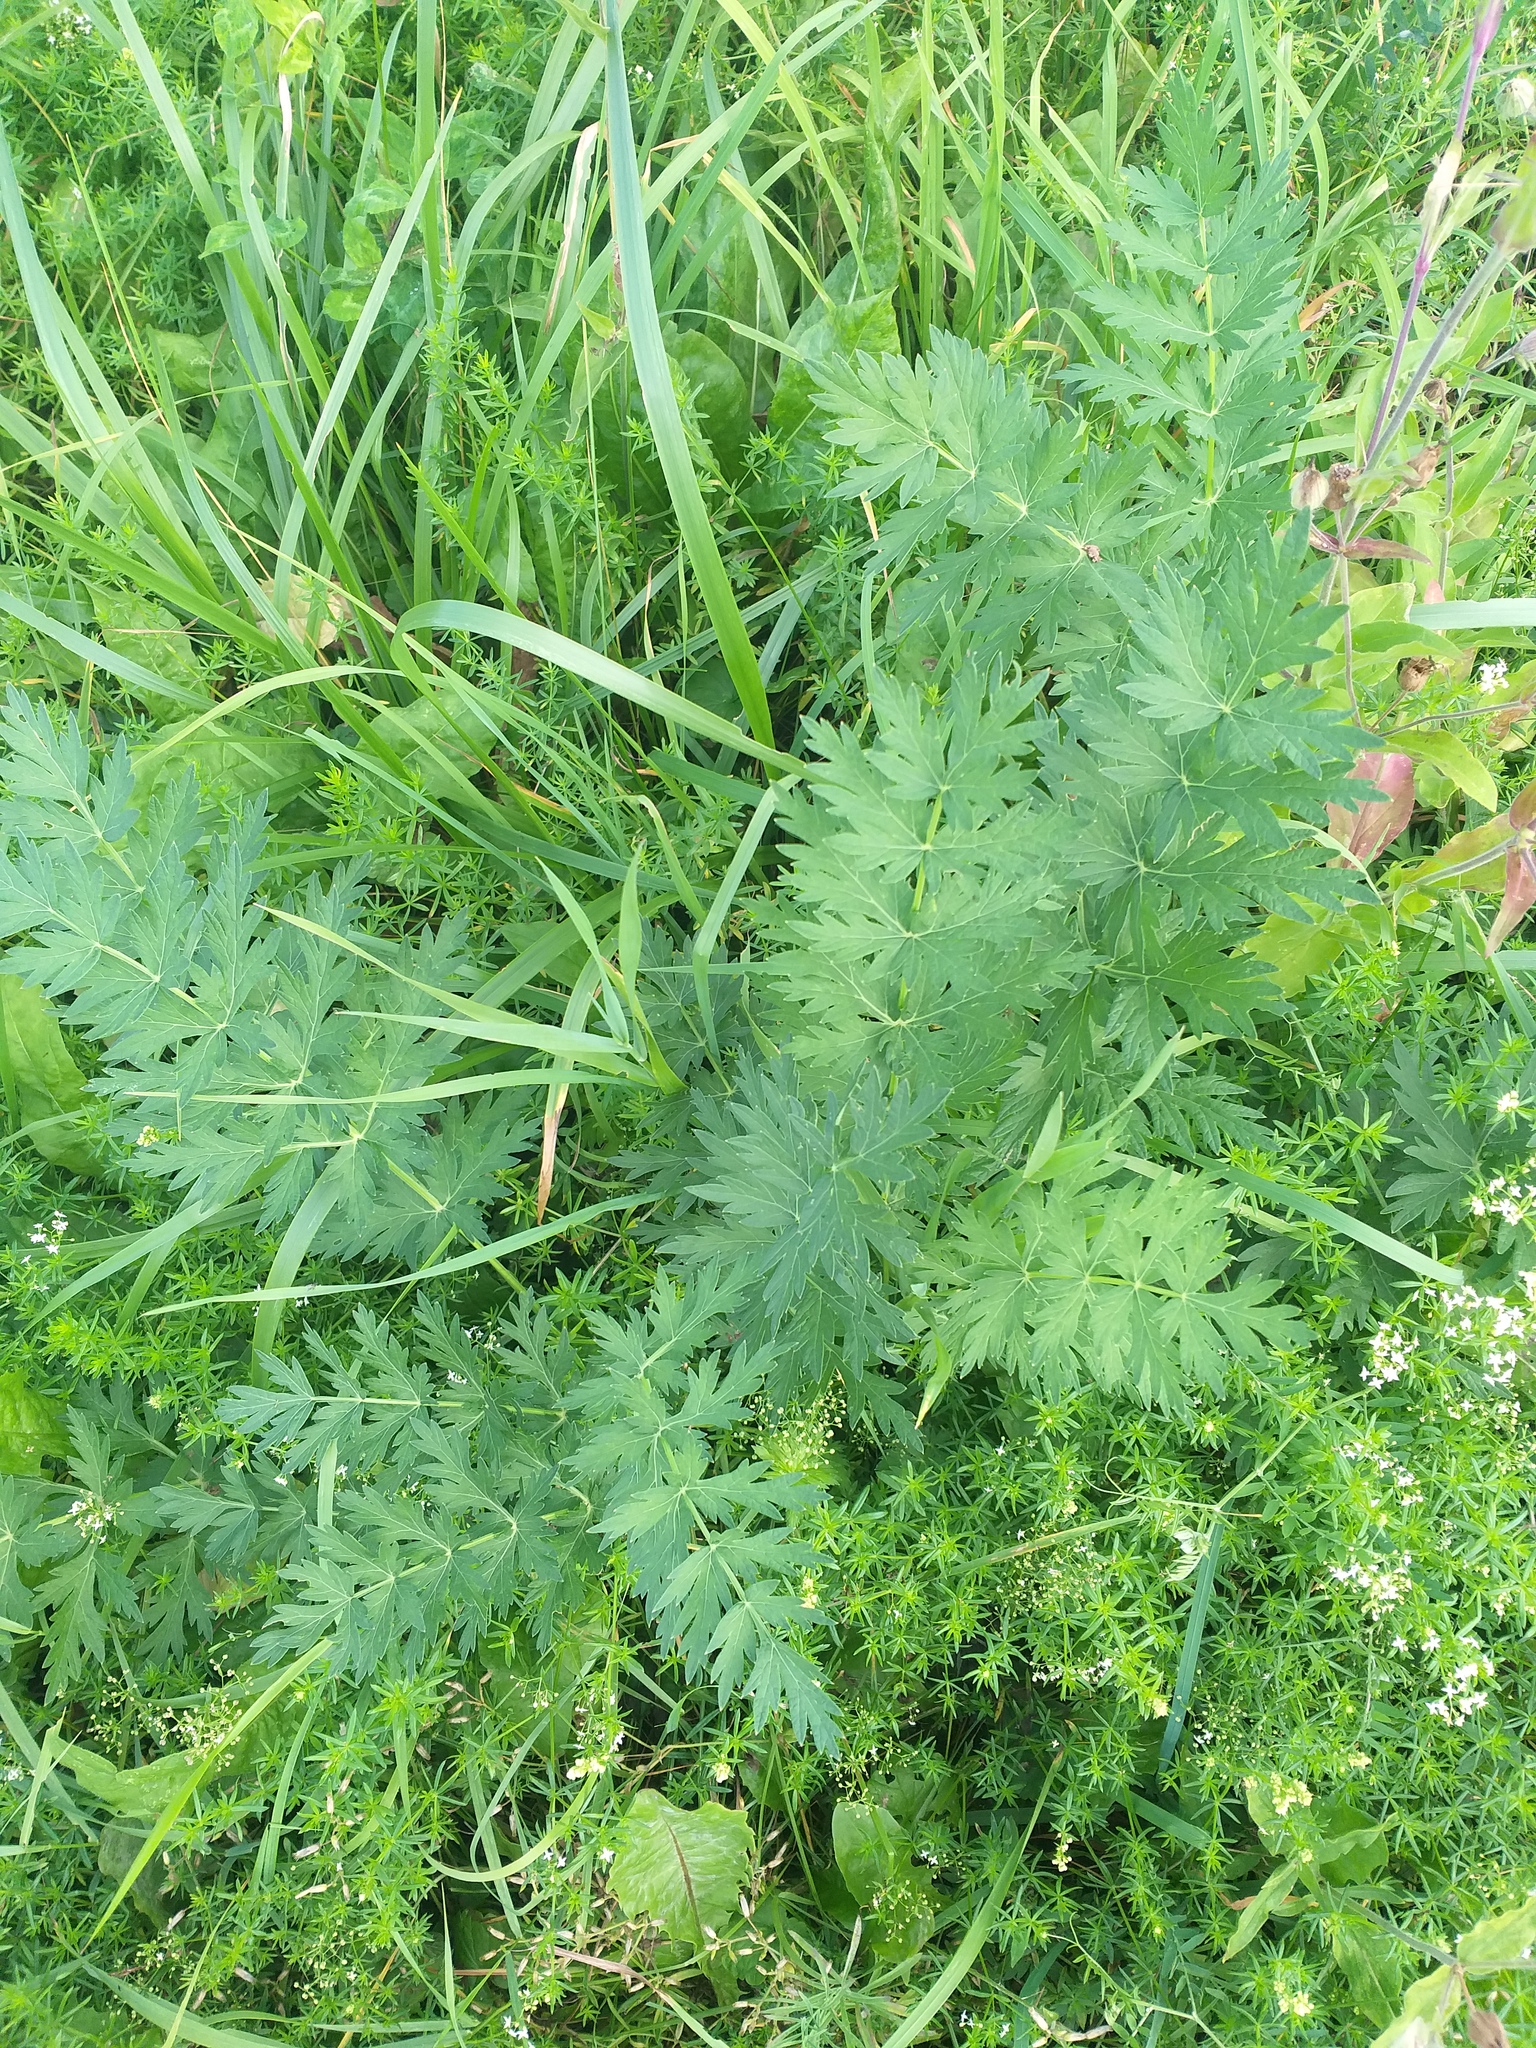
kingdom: Plantae
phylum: Tracheophyta
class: Magnoliopsida
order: Apiales
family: Apiaceae
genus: Seseli
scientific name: Seseli libanotis
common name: Mooncarrot
